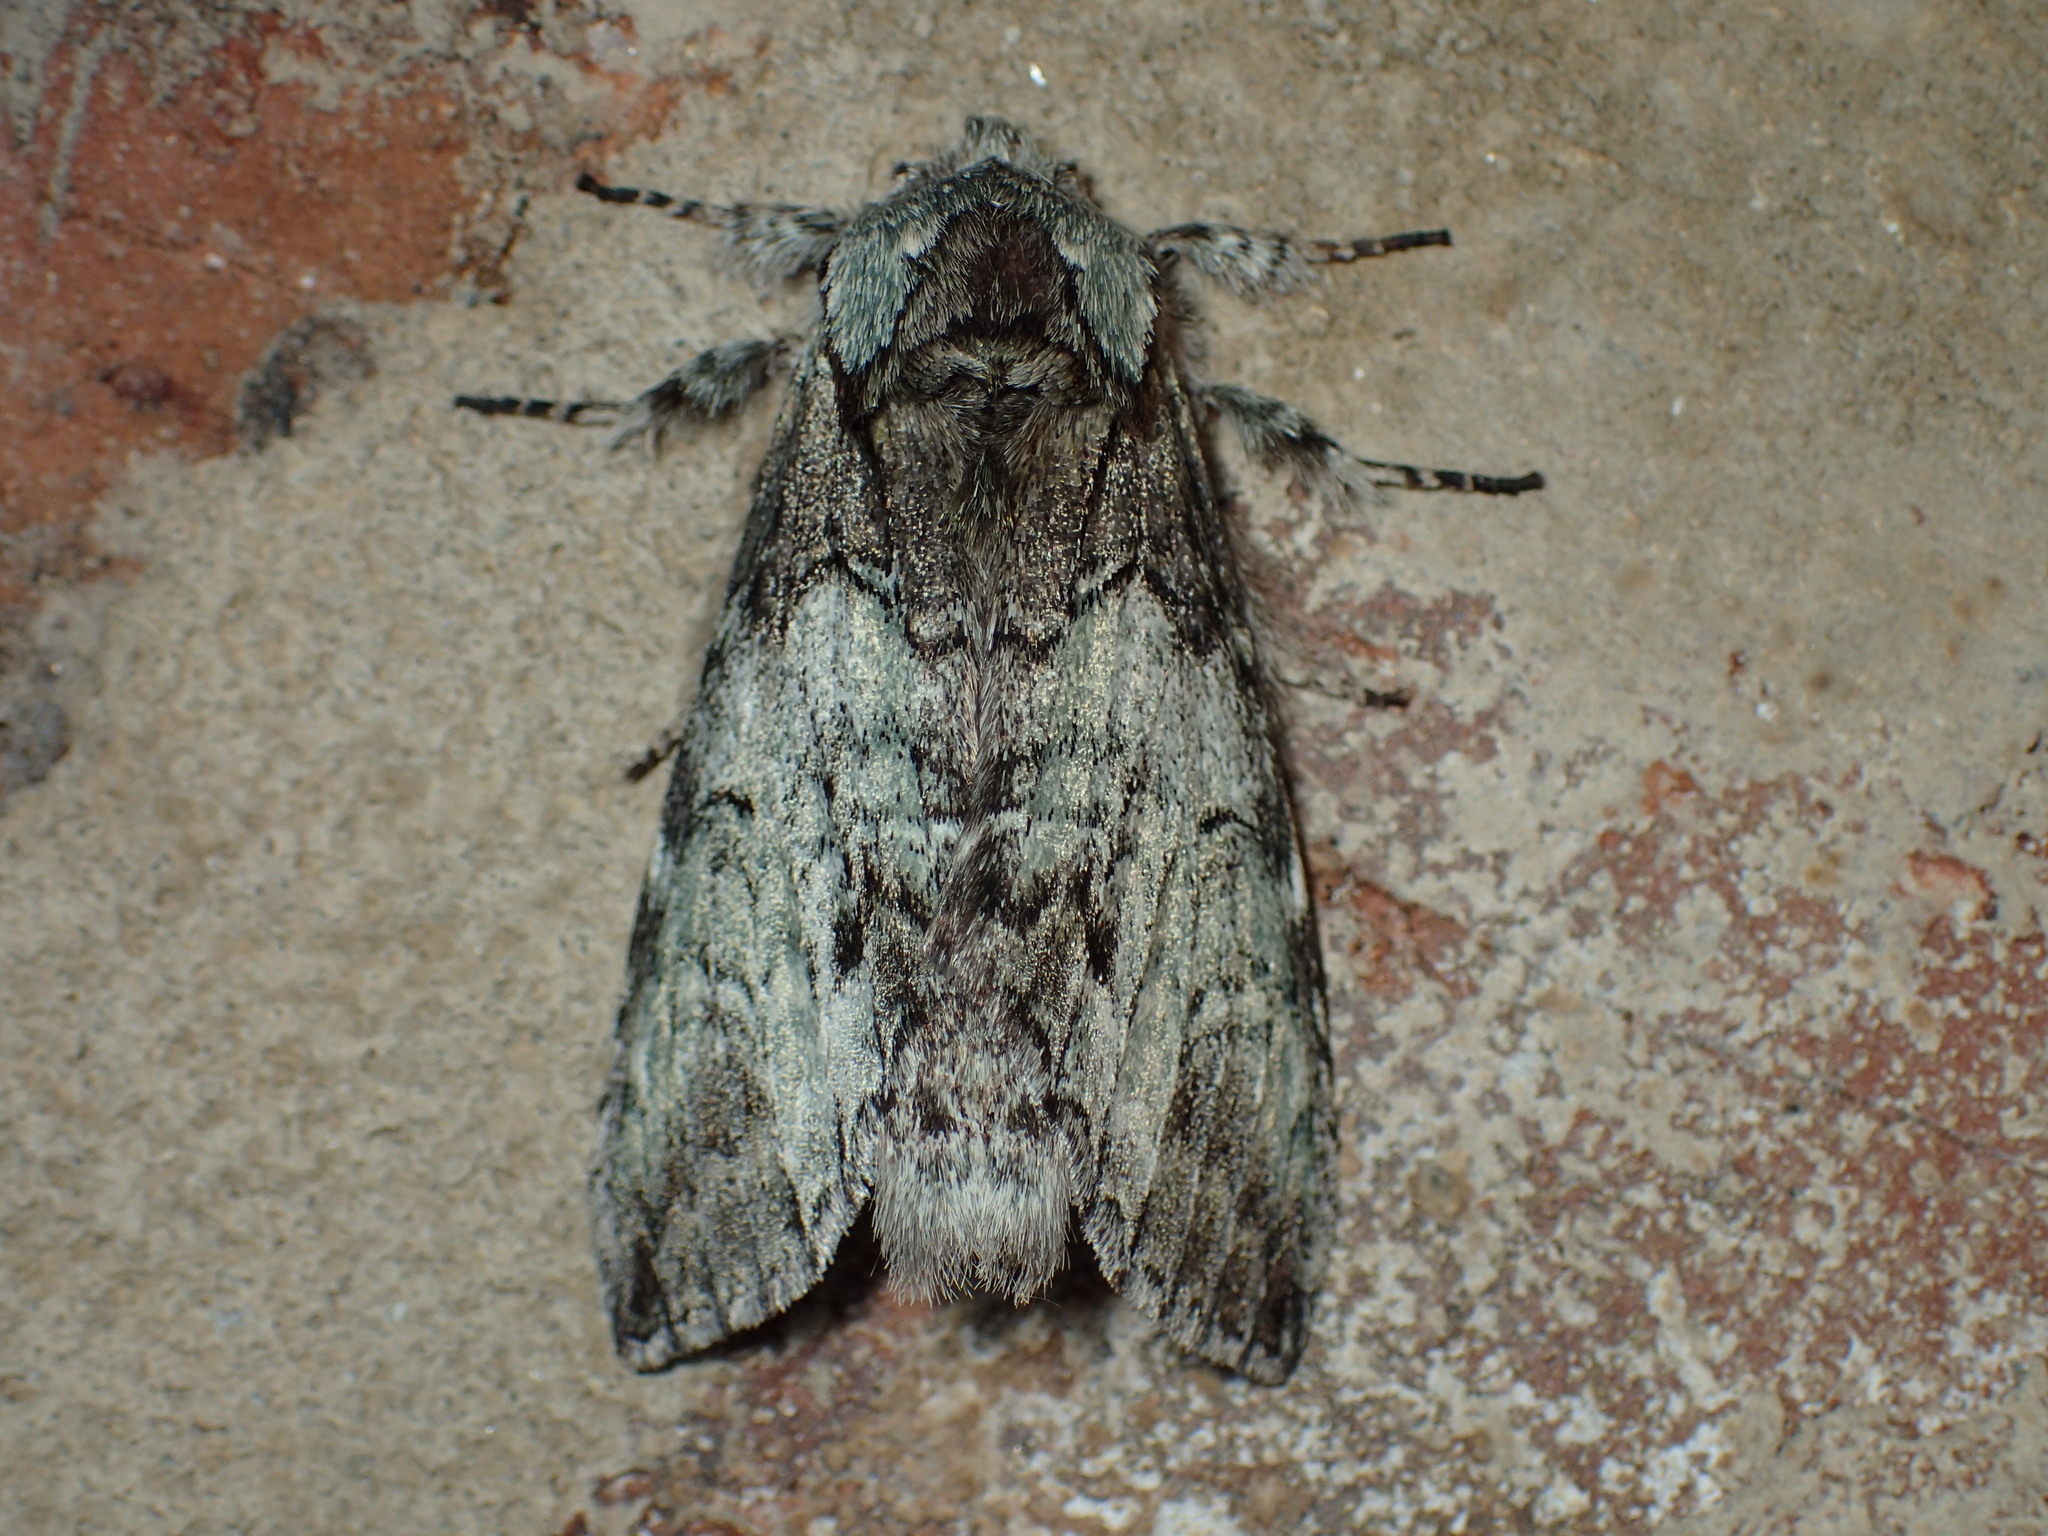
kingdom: Animalia
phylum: Arthropoda
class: Insecta
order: Lepidoptera
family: Notodontidae
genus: Macrurocampa
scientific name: Macrurocampa marthesia
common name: Mottled prominent
